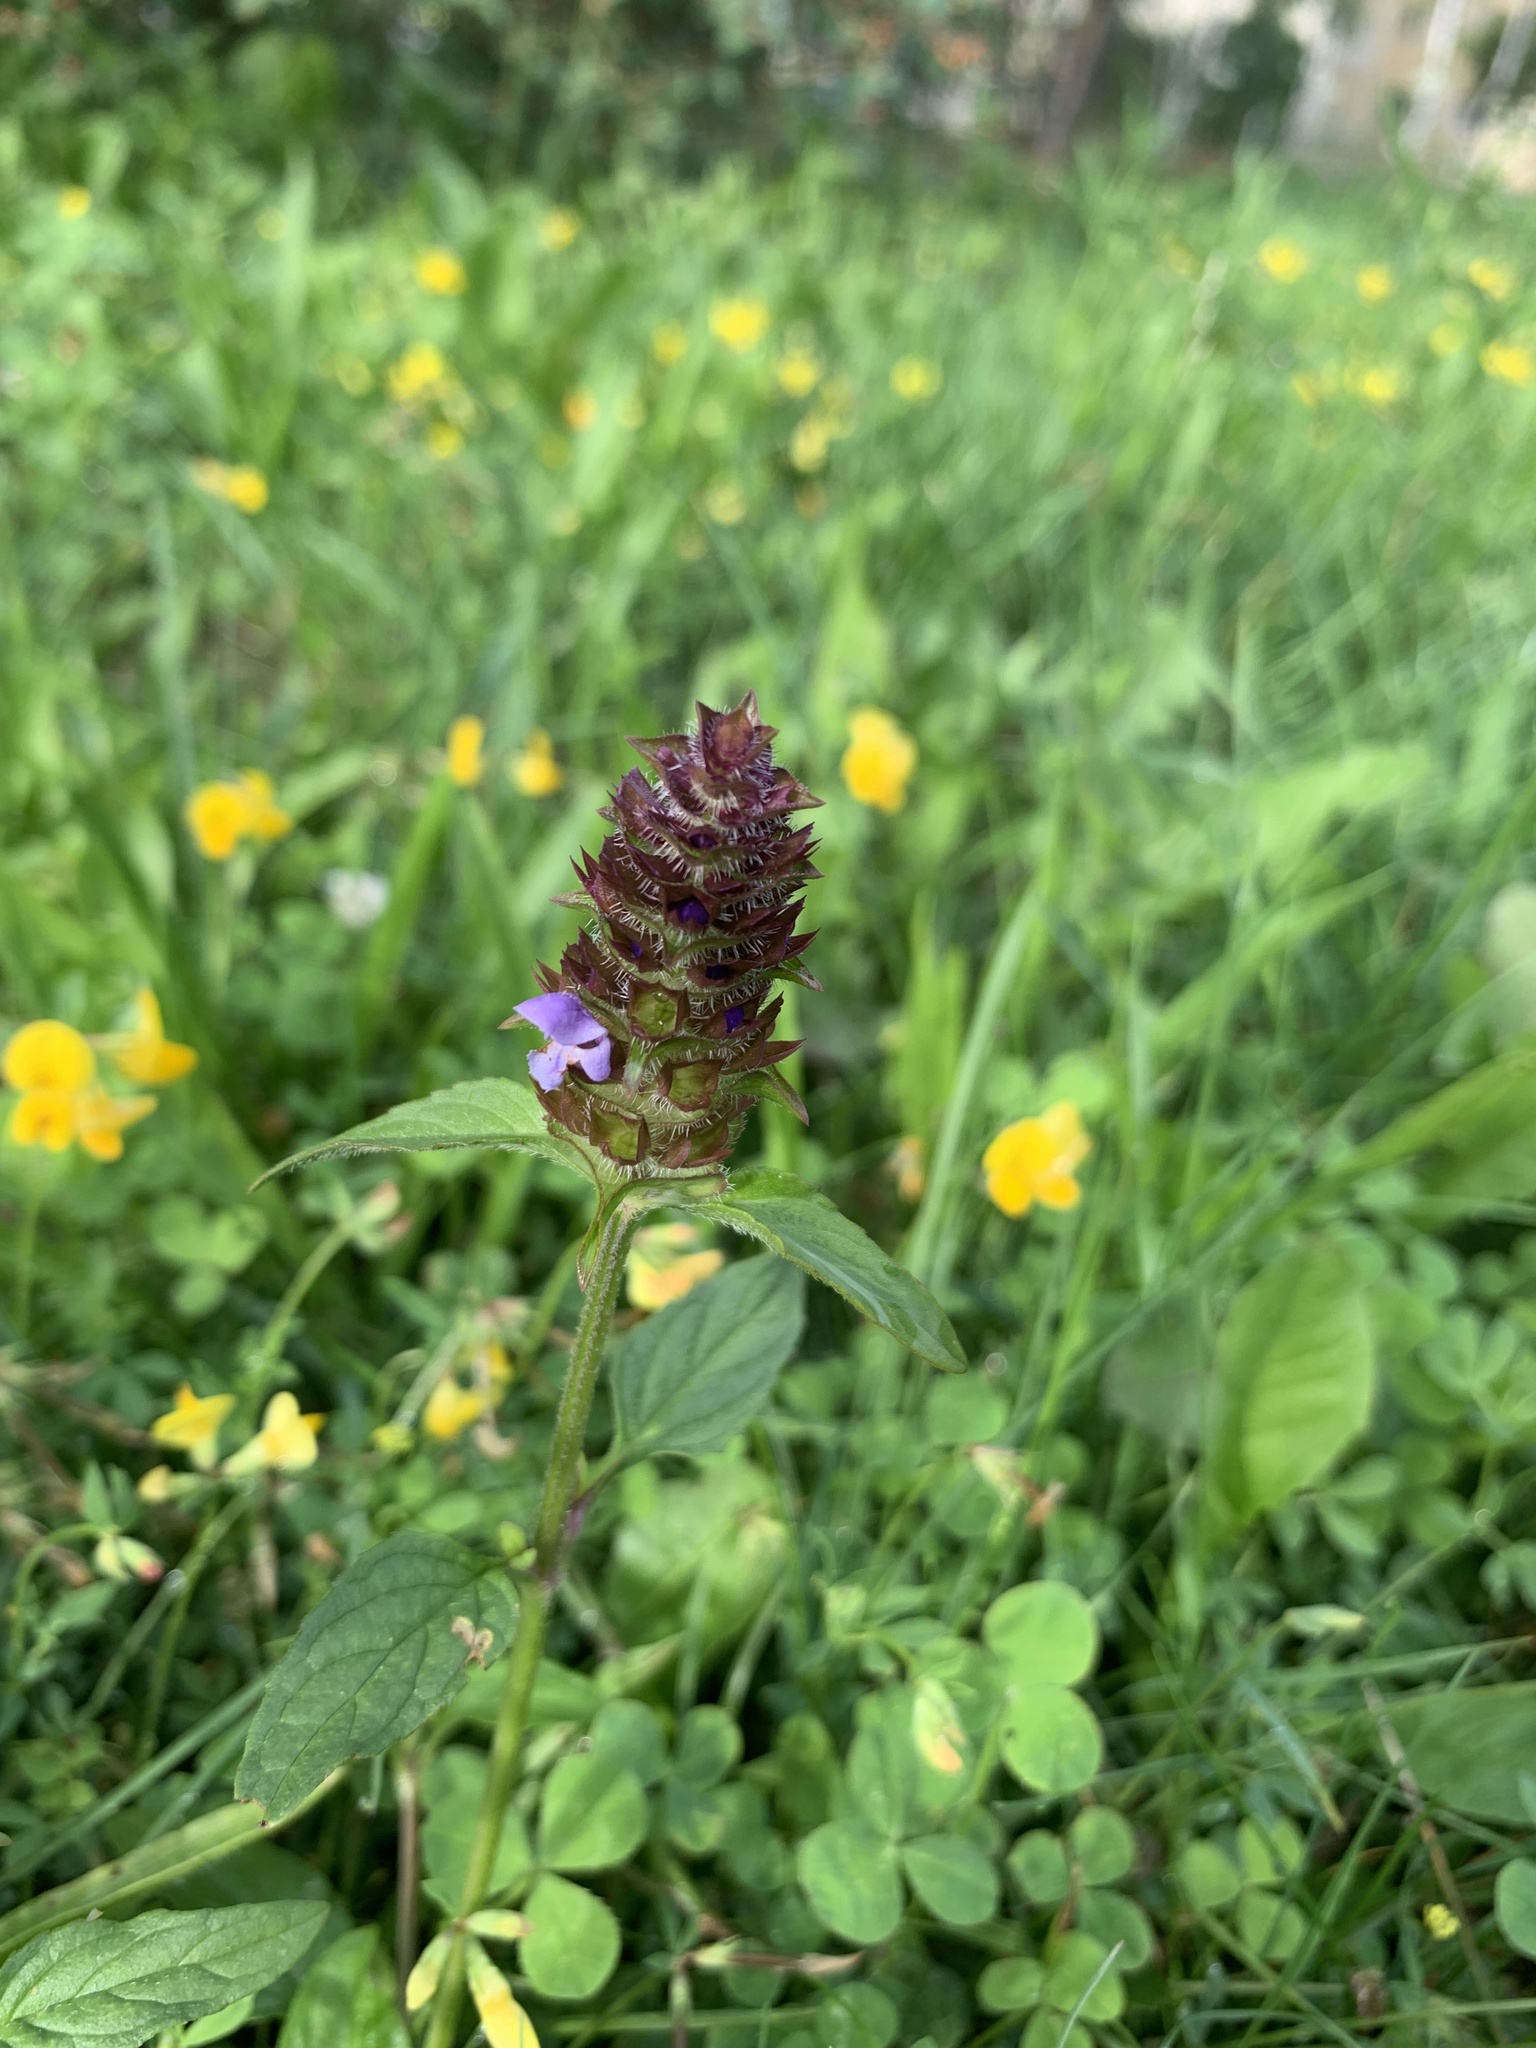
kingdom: Plantae
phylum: Tracheophyta
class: Magnoliopsida
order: Lamiales
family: Lamiaceae
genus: Prunella
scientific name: Prunella vulgaris
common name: Heal-all
